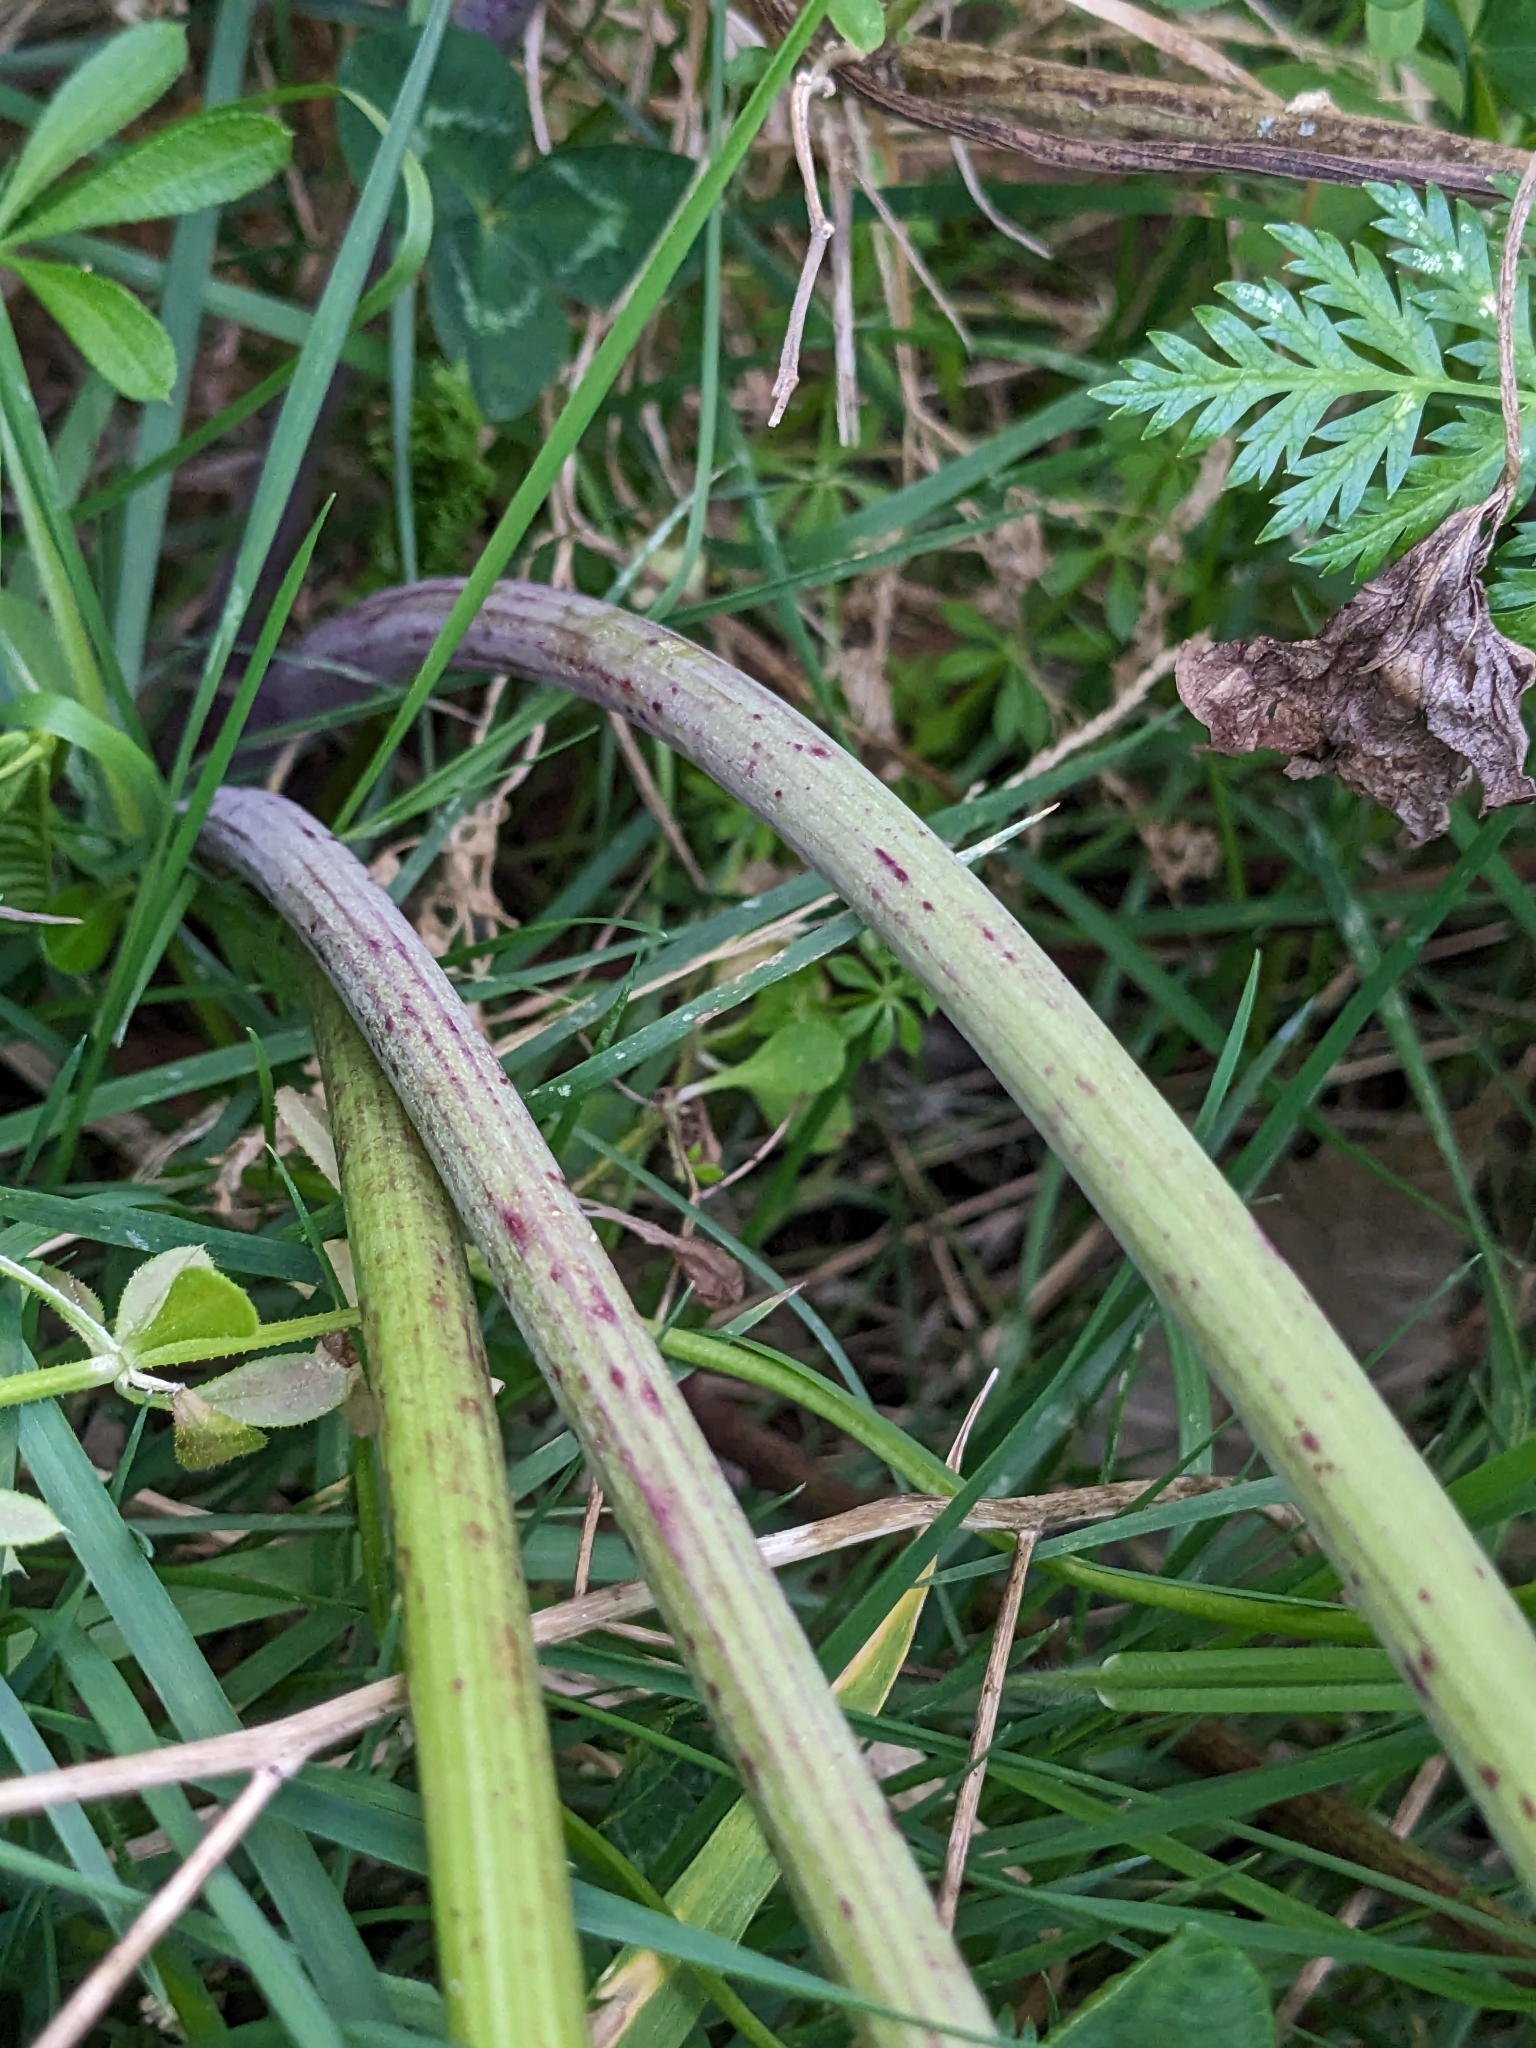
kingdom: Plantae
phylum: Tracheophyta
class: Magnoliopsida
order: Apiales
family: Apiaceae
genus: Conium
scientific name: Conium maculatum
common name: Hemlock
